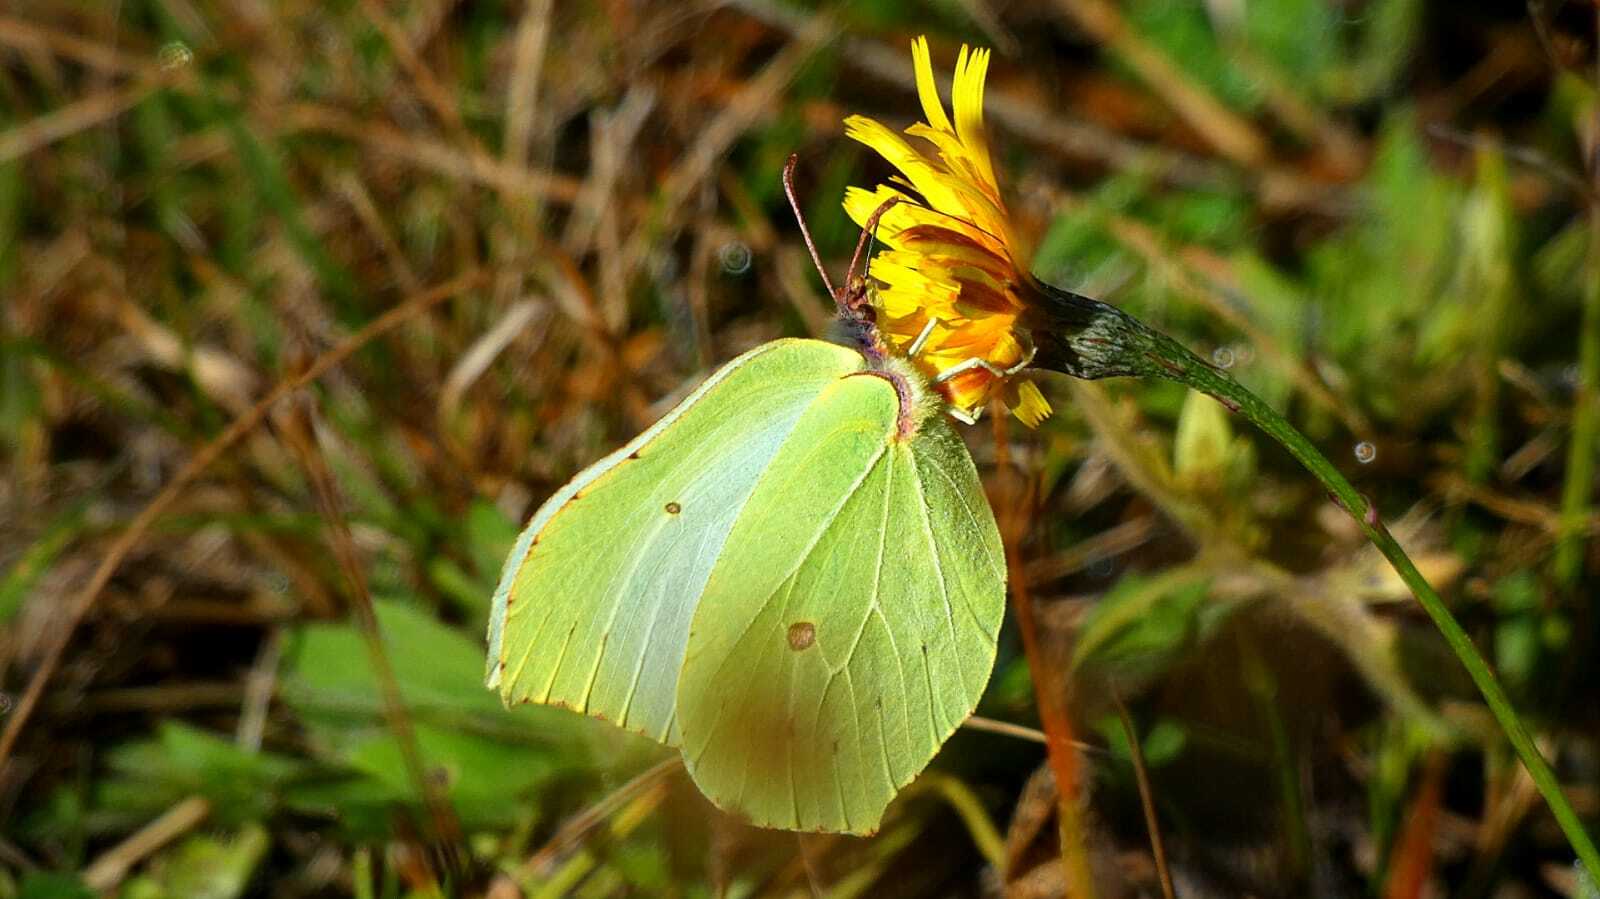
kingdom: Animalia
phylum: Arthropoda
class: Insecta
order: Lepidoptera
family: Pieridae
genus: Gonepteryx
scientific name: Gonepteryx rhamni
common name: Brimstone
